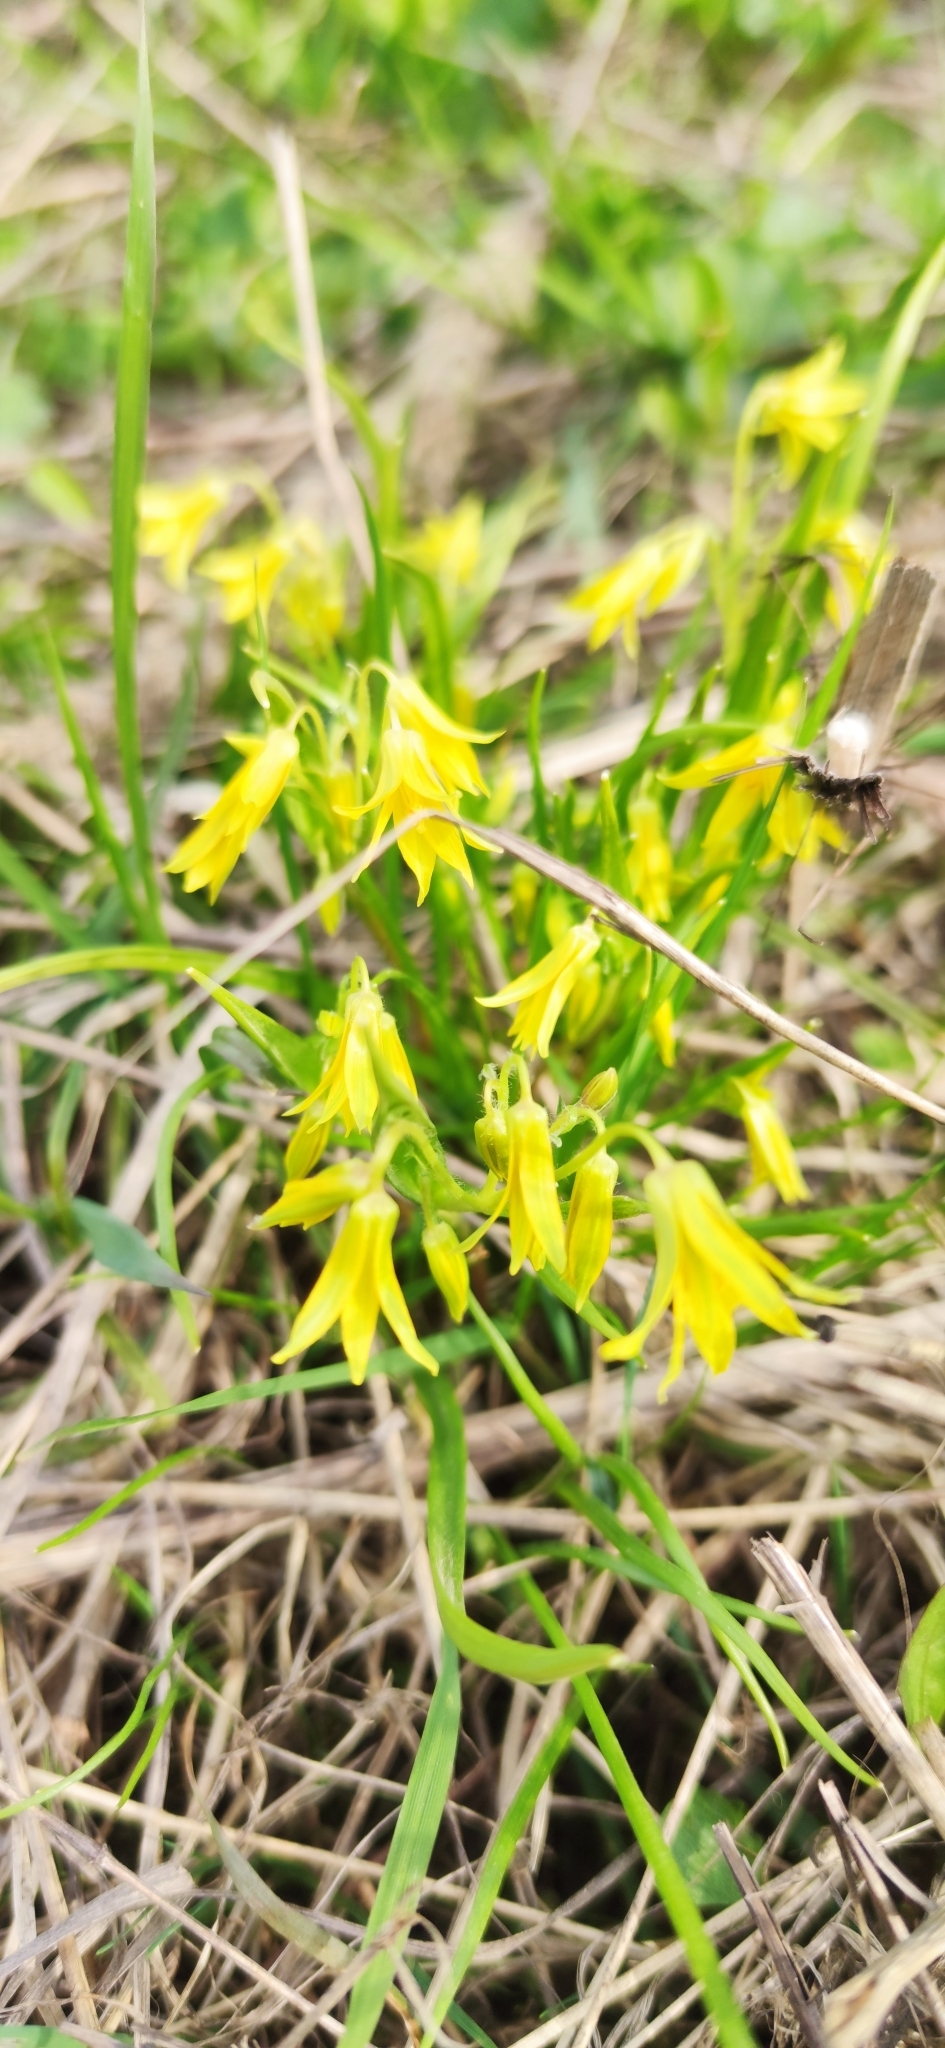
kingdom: Plantae
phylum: Tracheophyta
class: Liliopsida
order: Liliales
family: Liliaceae
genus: Gagea
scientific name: Gagea minima
